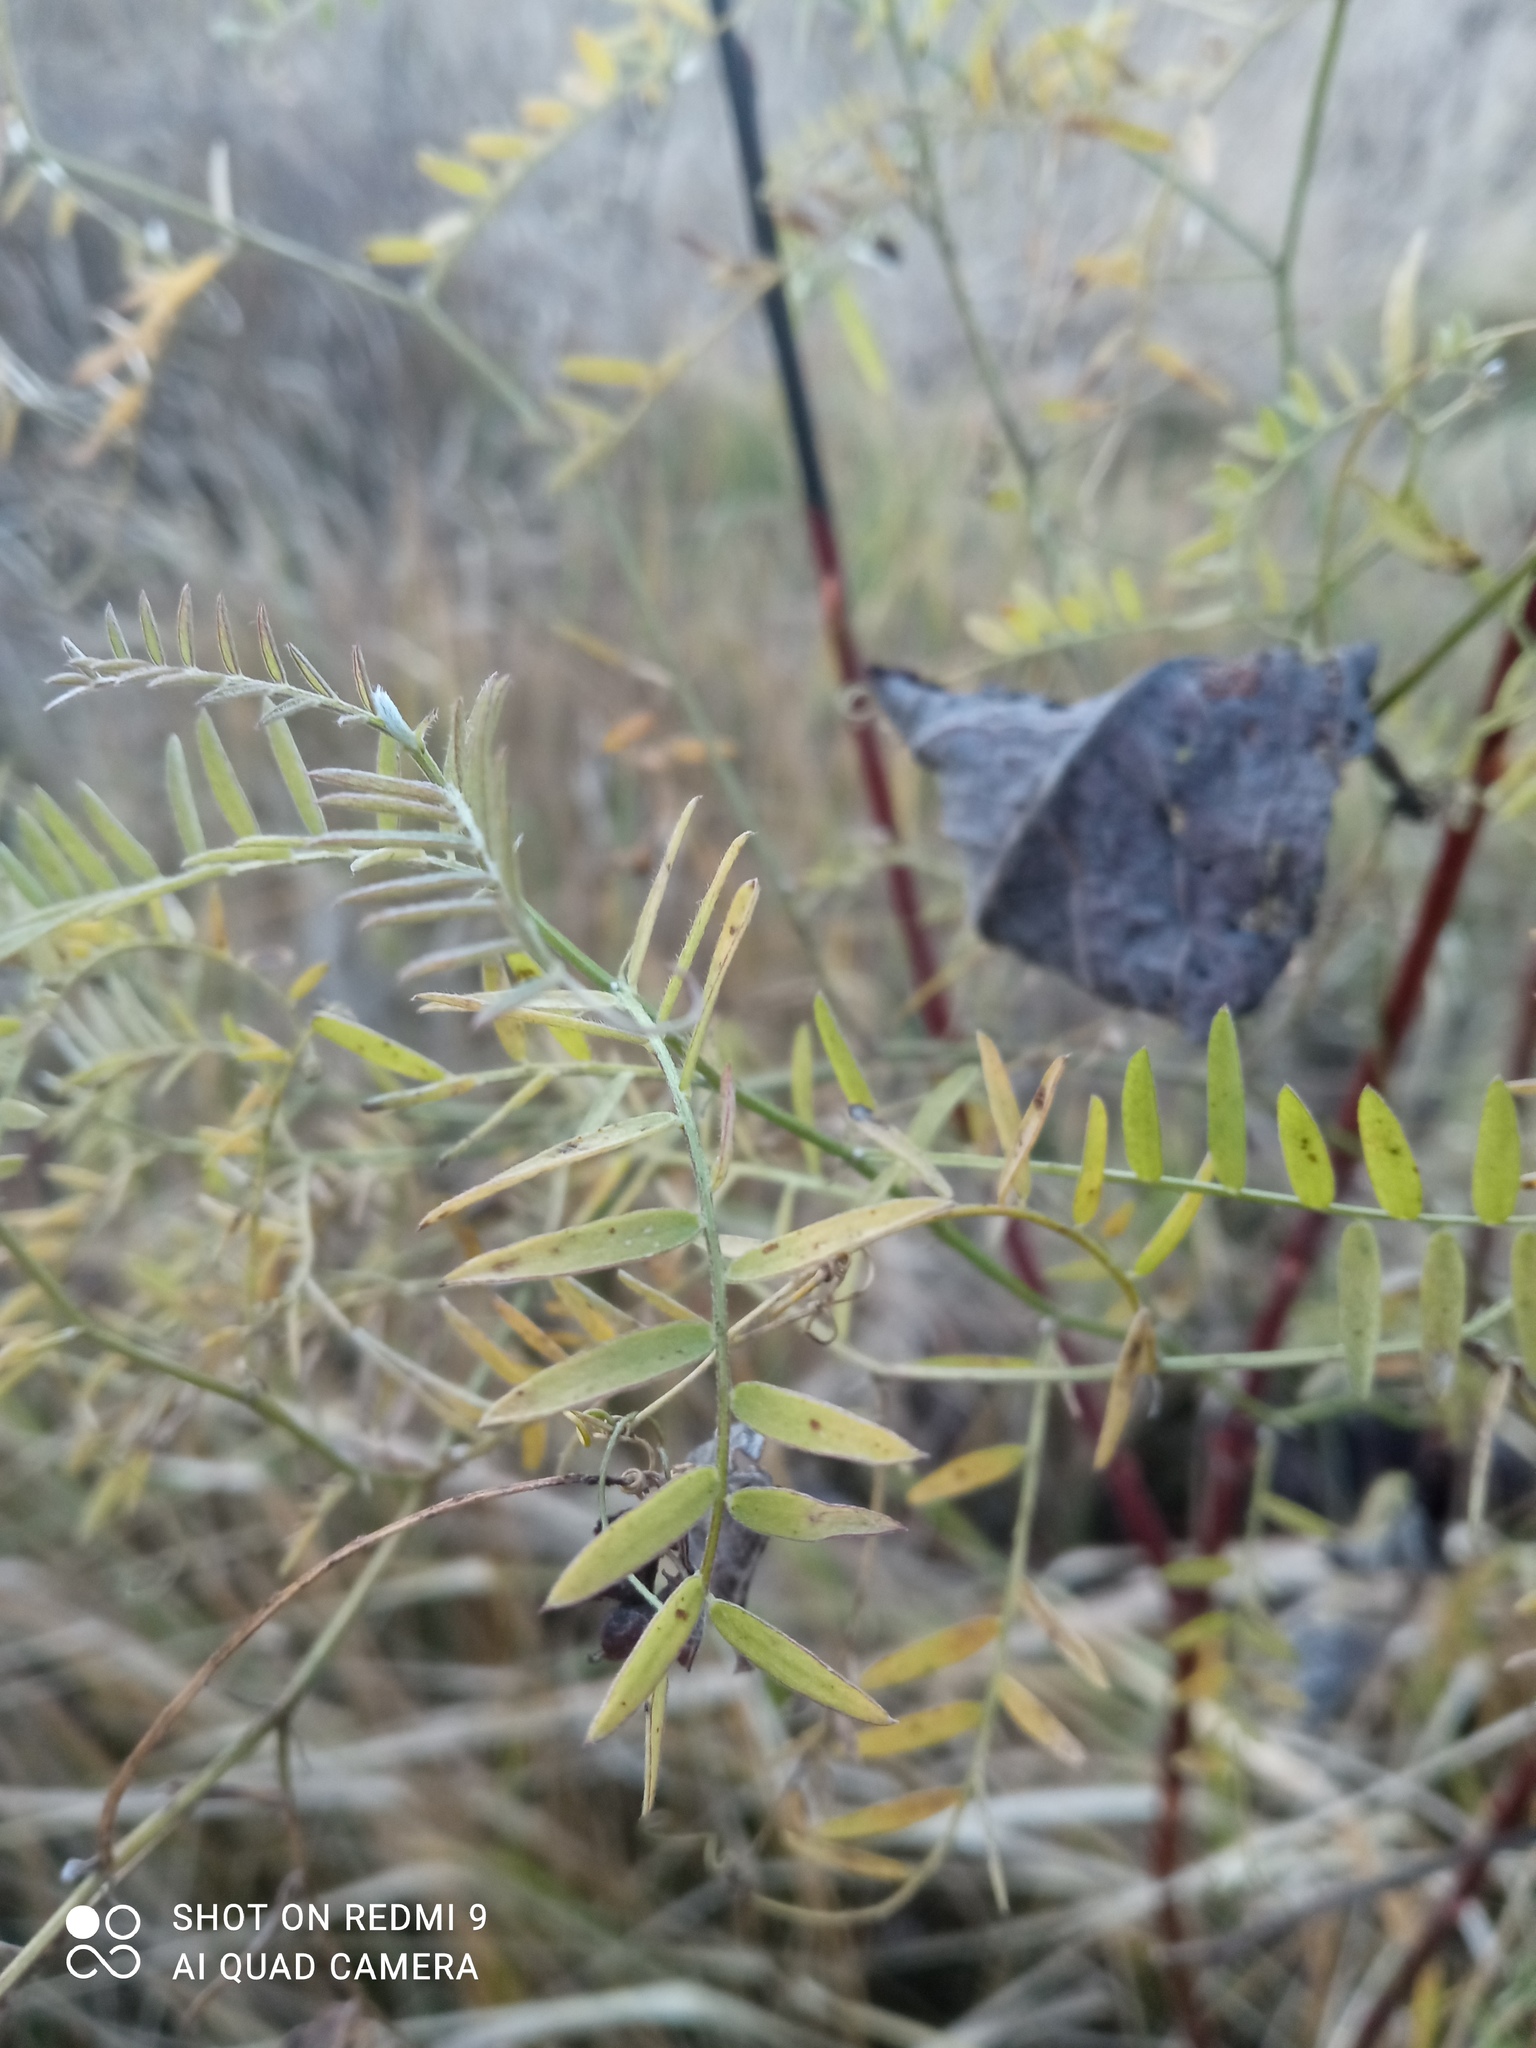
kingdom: Plantae
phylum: Tracheophyta
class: Magnoliopsida
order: Fabales
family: Fabaceae
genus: Vicia
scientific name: Vicia cracca
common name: Bird vetch
